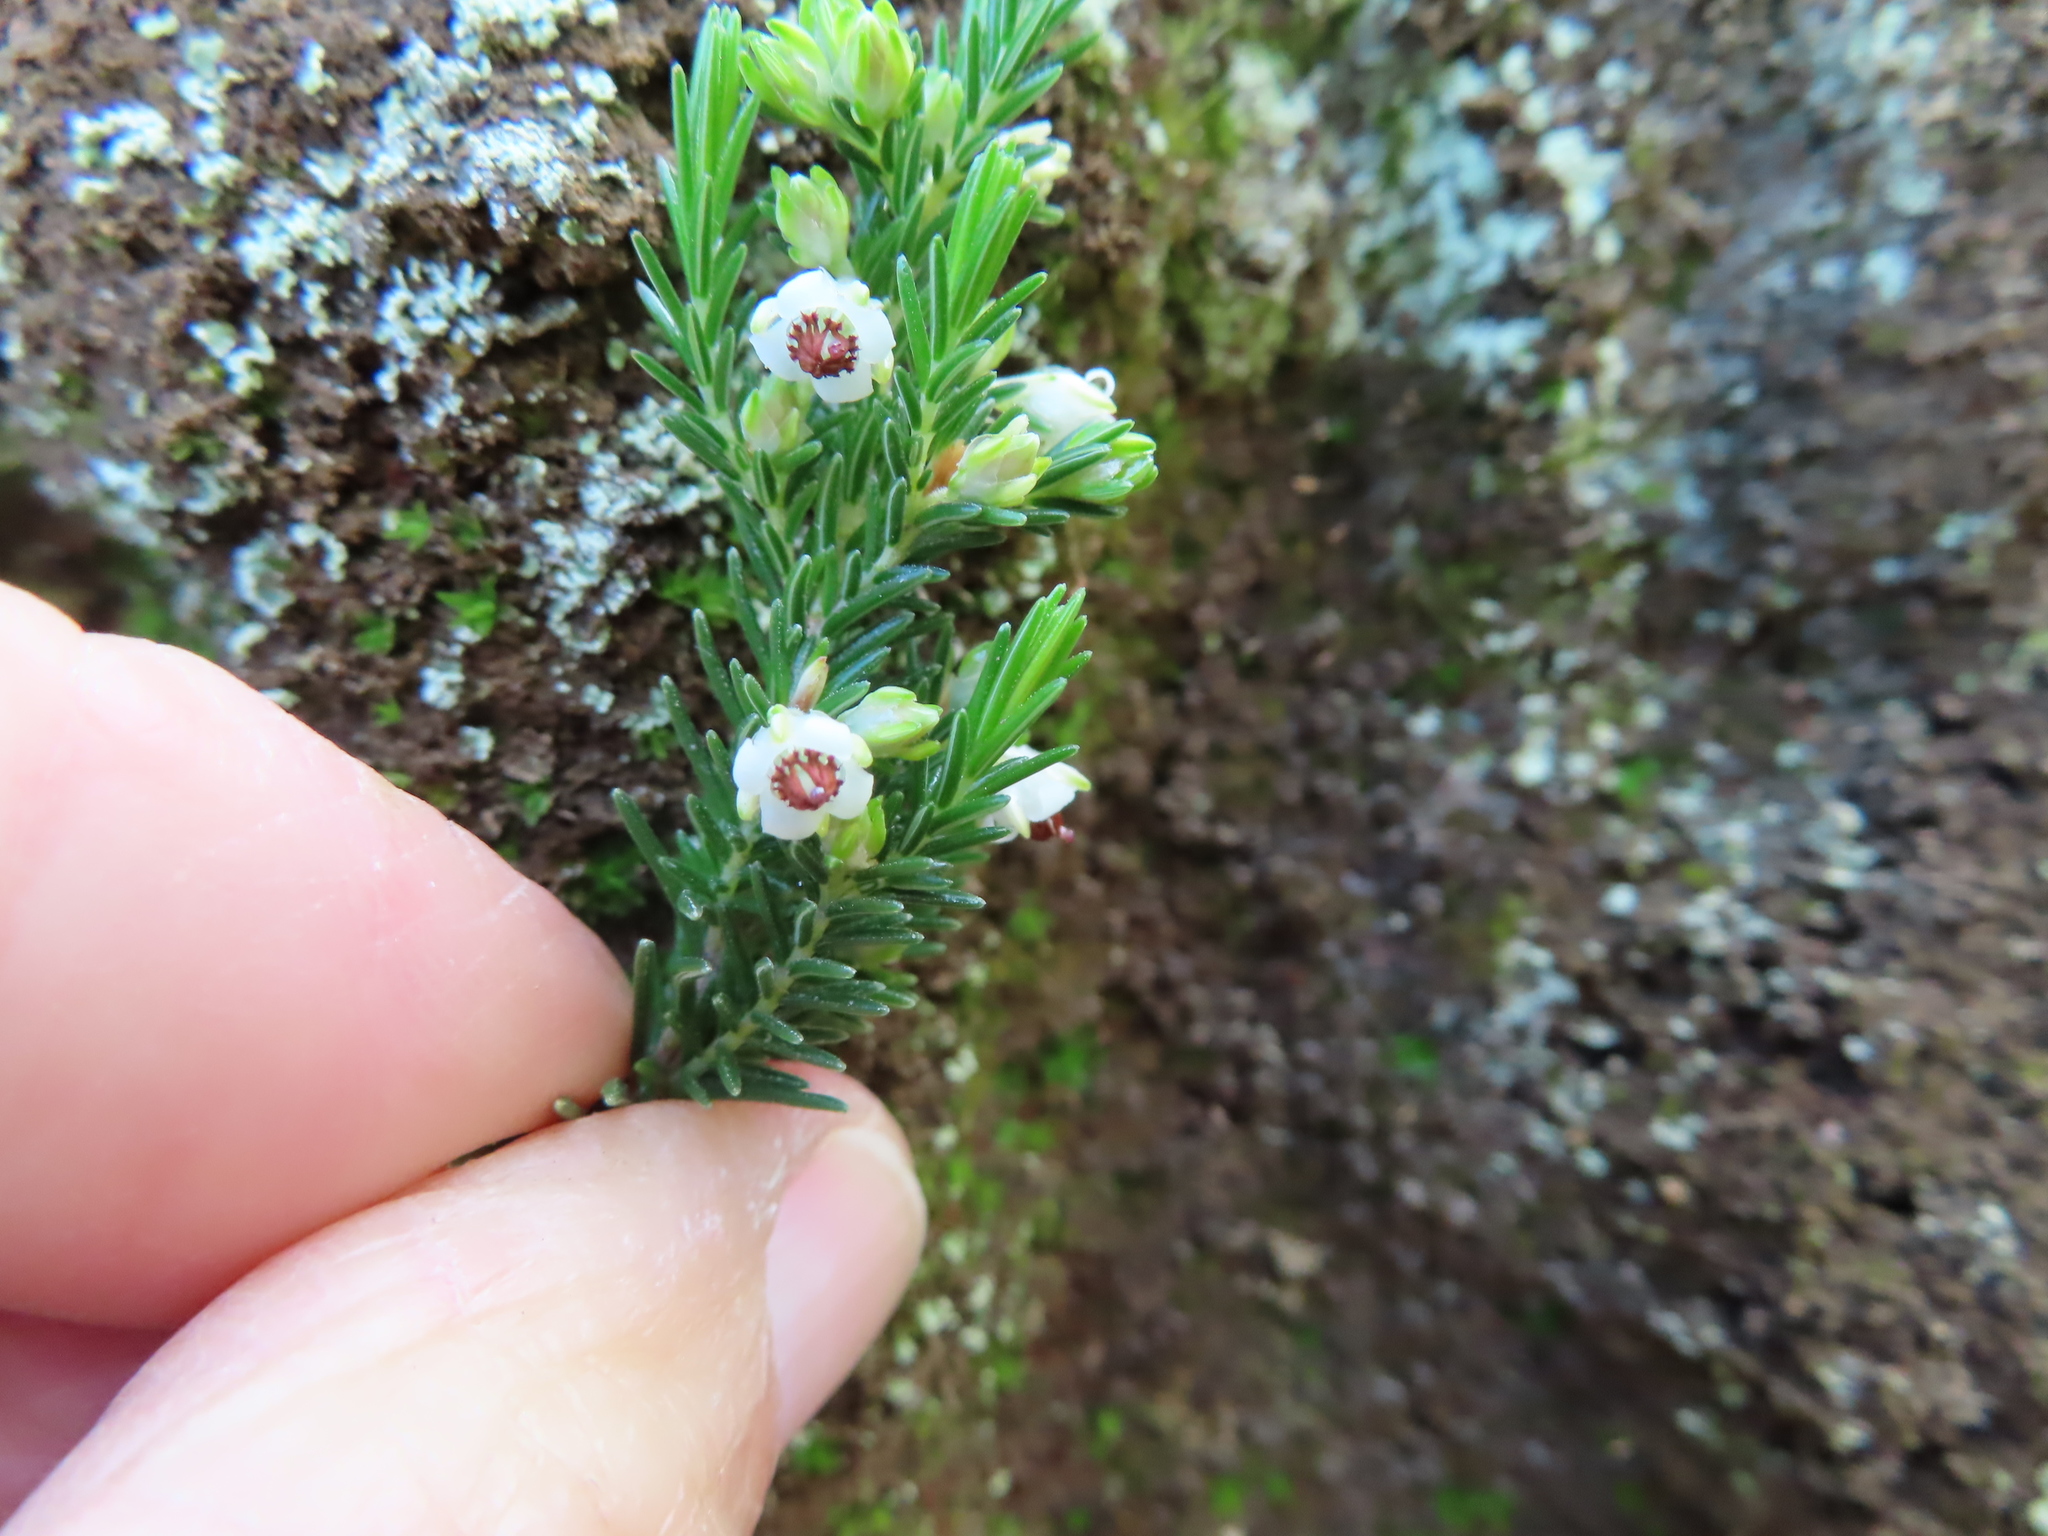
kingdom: Plantae
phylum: Tracheophyta
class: Magnoliopsida
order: Ericales
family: Ericaceae
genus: Erica
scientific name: Erica calycina
